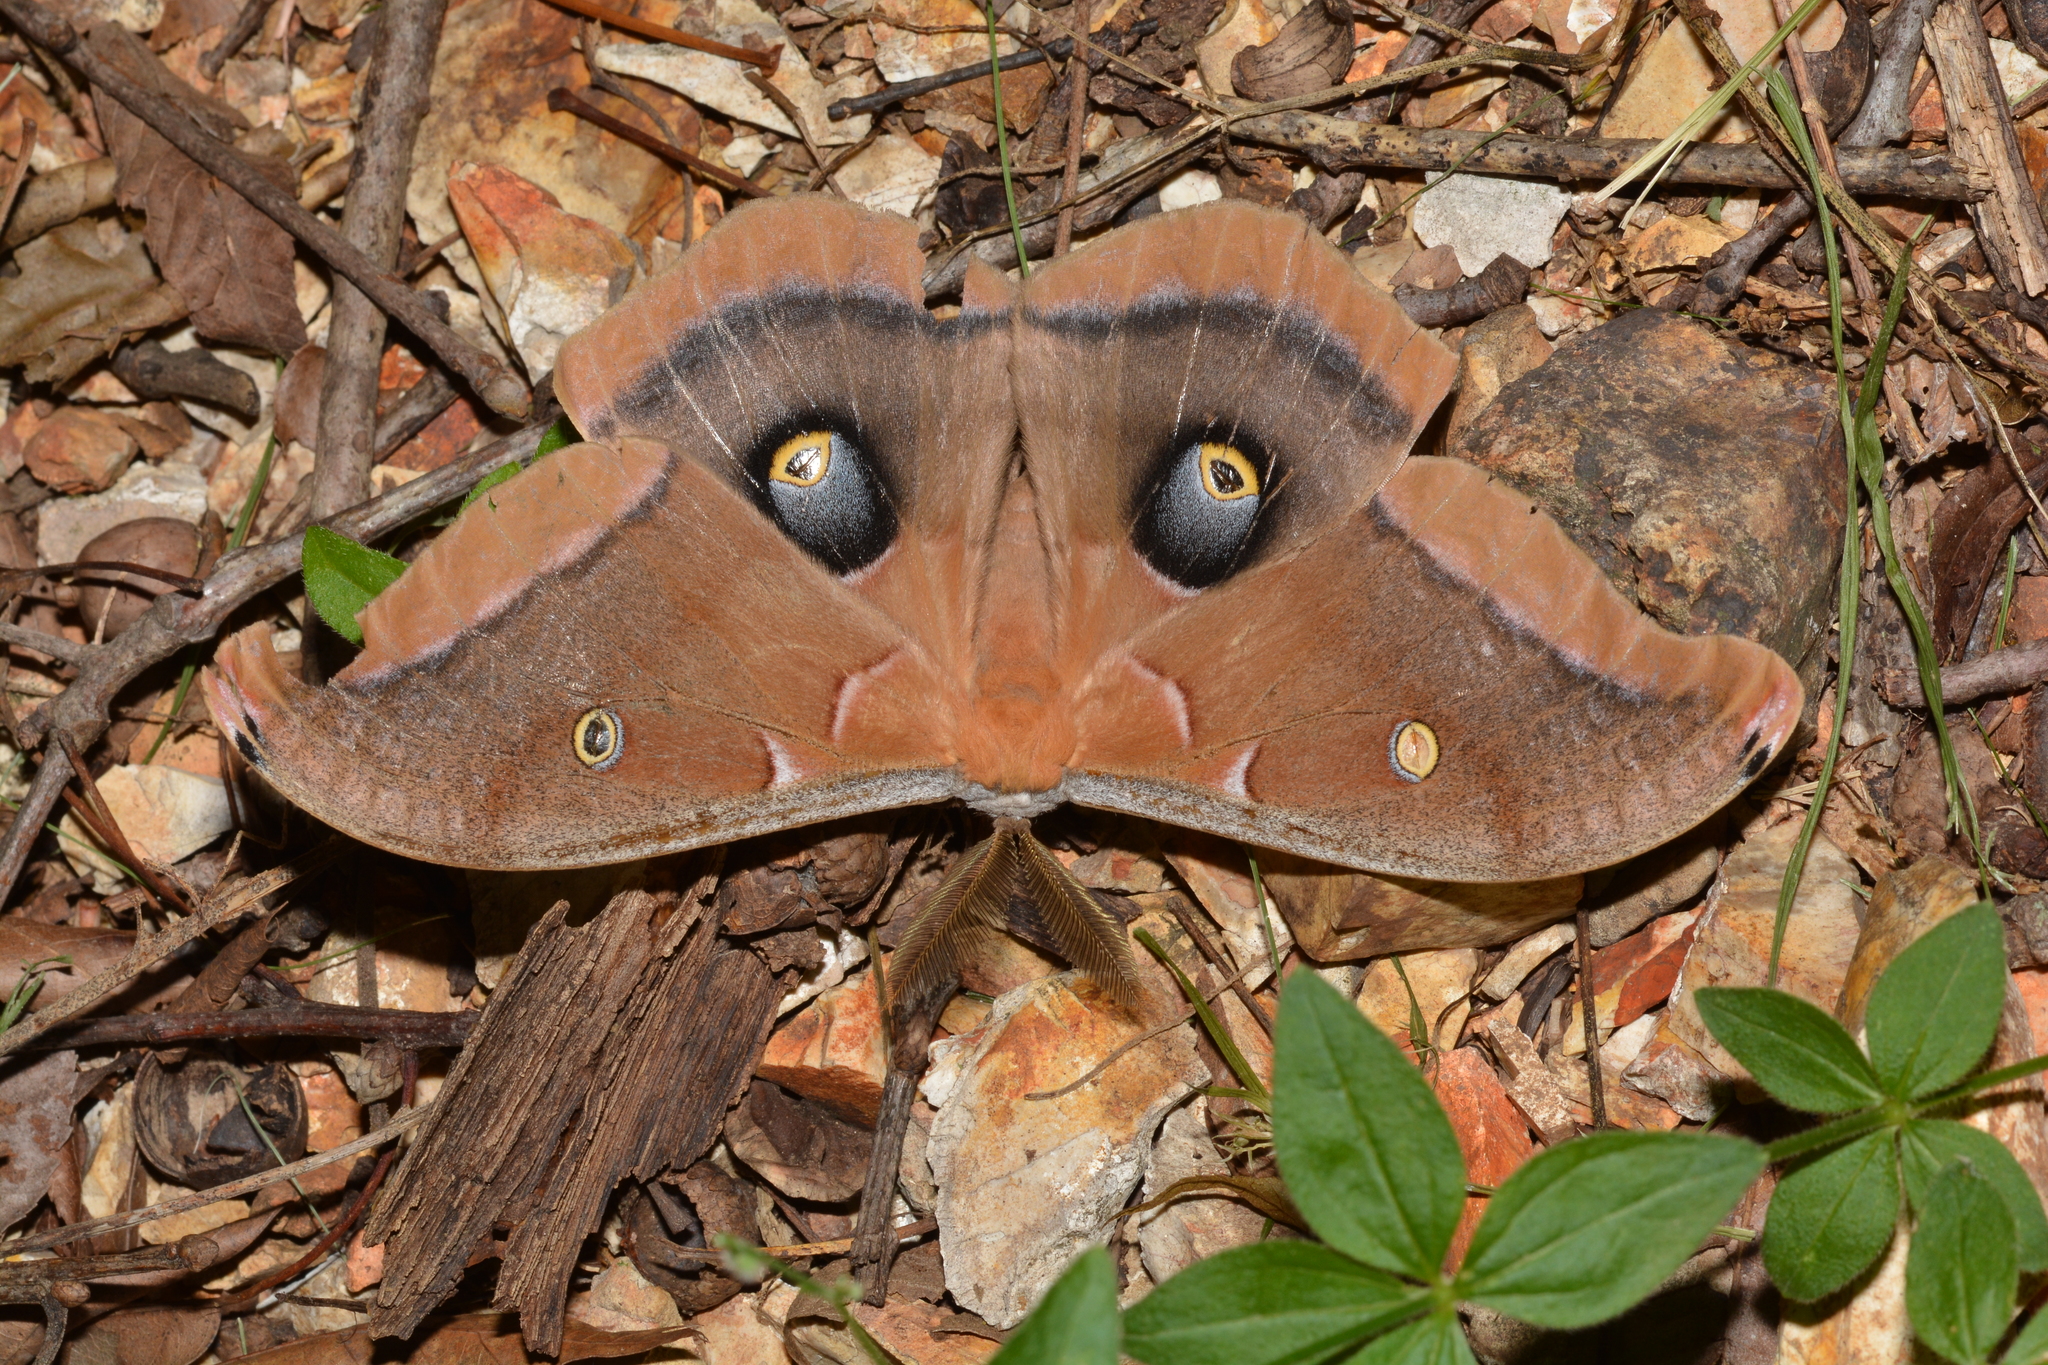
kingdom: Animalia
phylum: Arthropoda
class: Insecta
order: Lepidoptera
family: Saturniidae
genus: Antheraea
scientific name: Antheraea polyphemus
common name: Polyphemus moth
